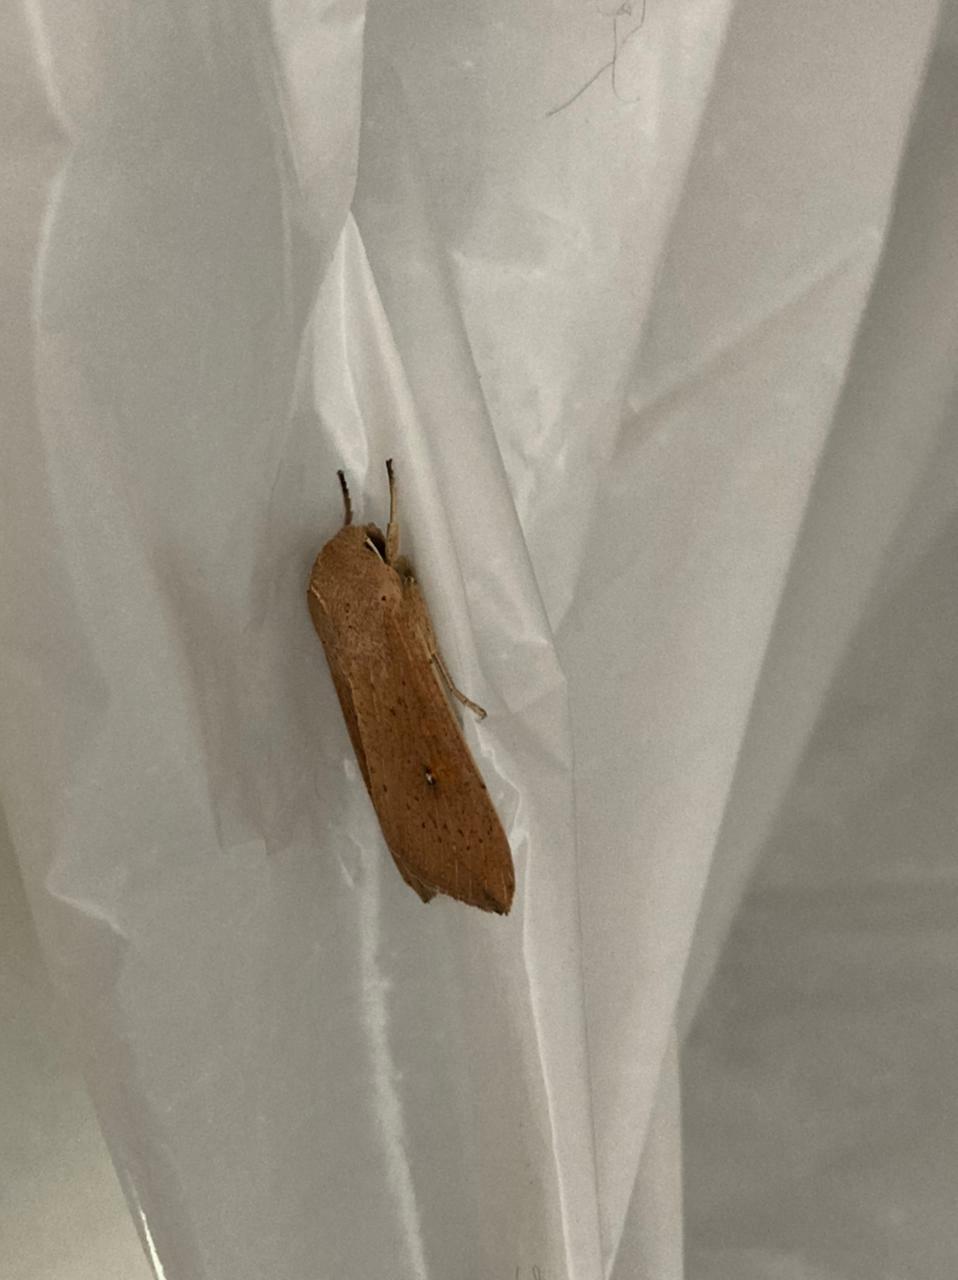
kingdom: Animalia
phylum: Arthropoda
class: Insecta
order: Lepidoptera
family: Noctuidae
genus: Mythimna
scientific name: Mythimna punctulata
